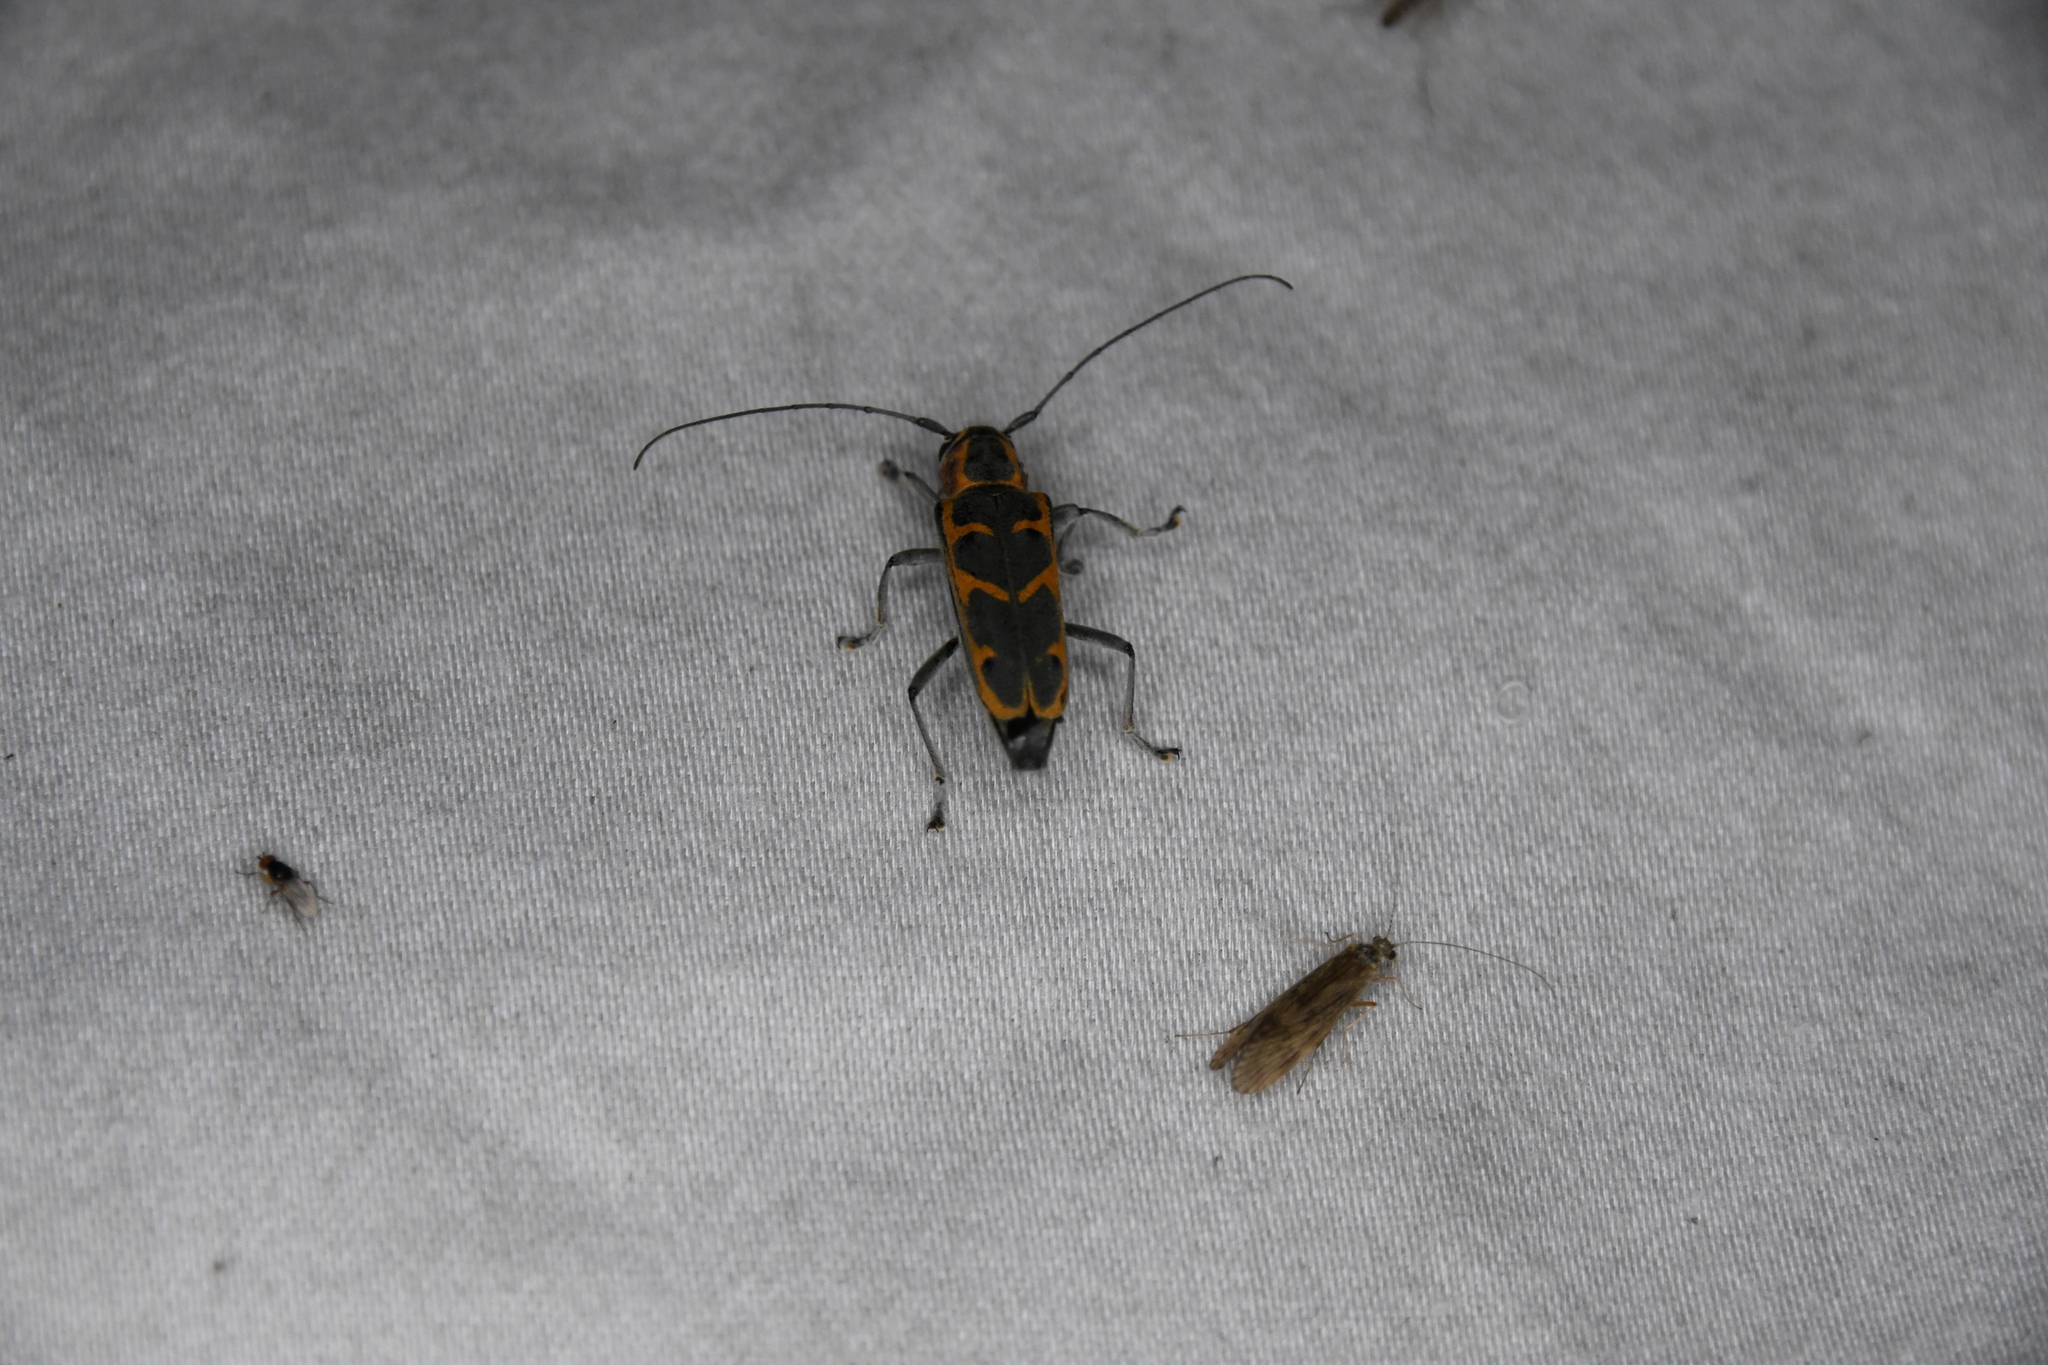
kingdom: Animalia
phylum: Arthropoda
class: Insecta
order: Coleoptera
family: Cerambycidae
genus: Saperda
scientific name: Saperda tridentata
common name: Elm borer
